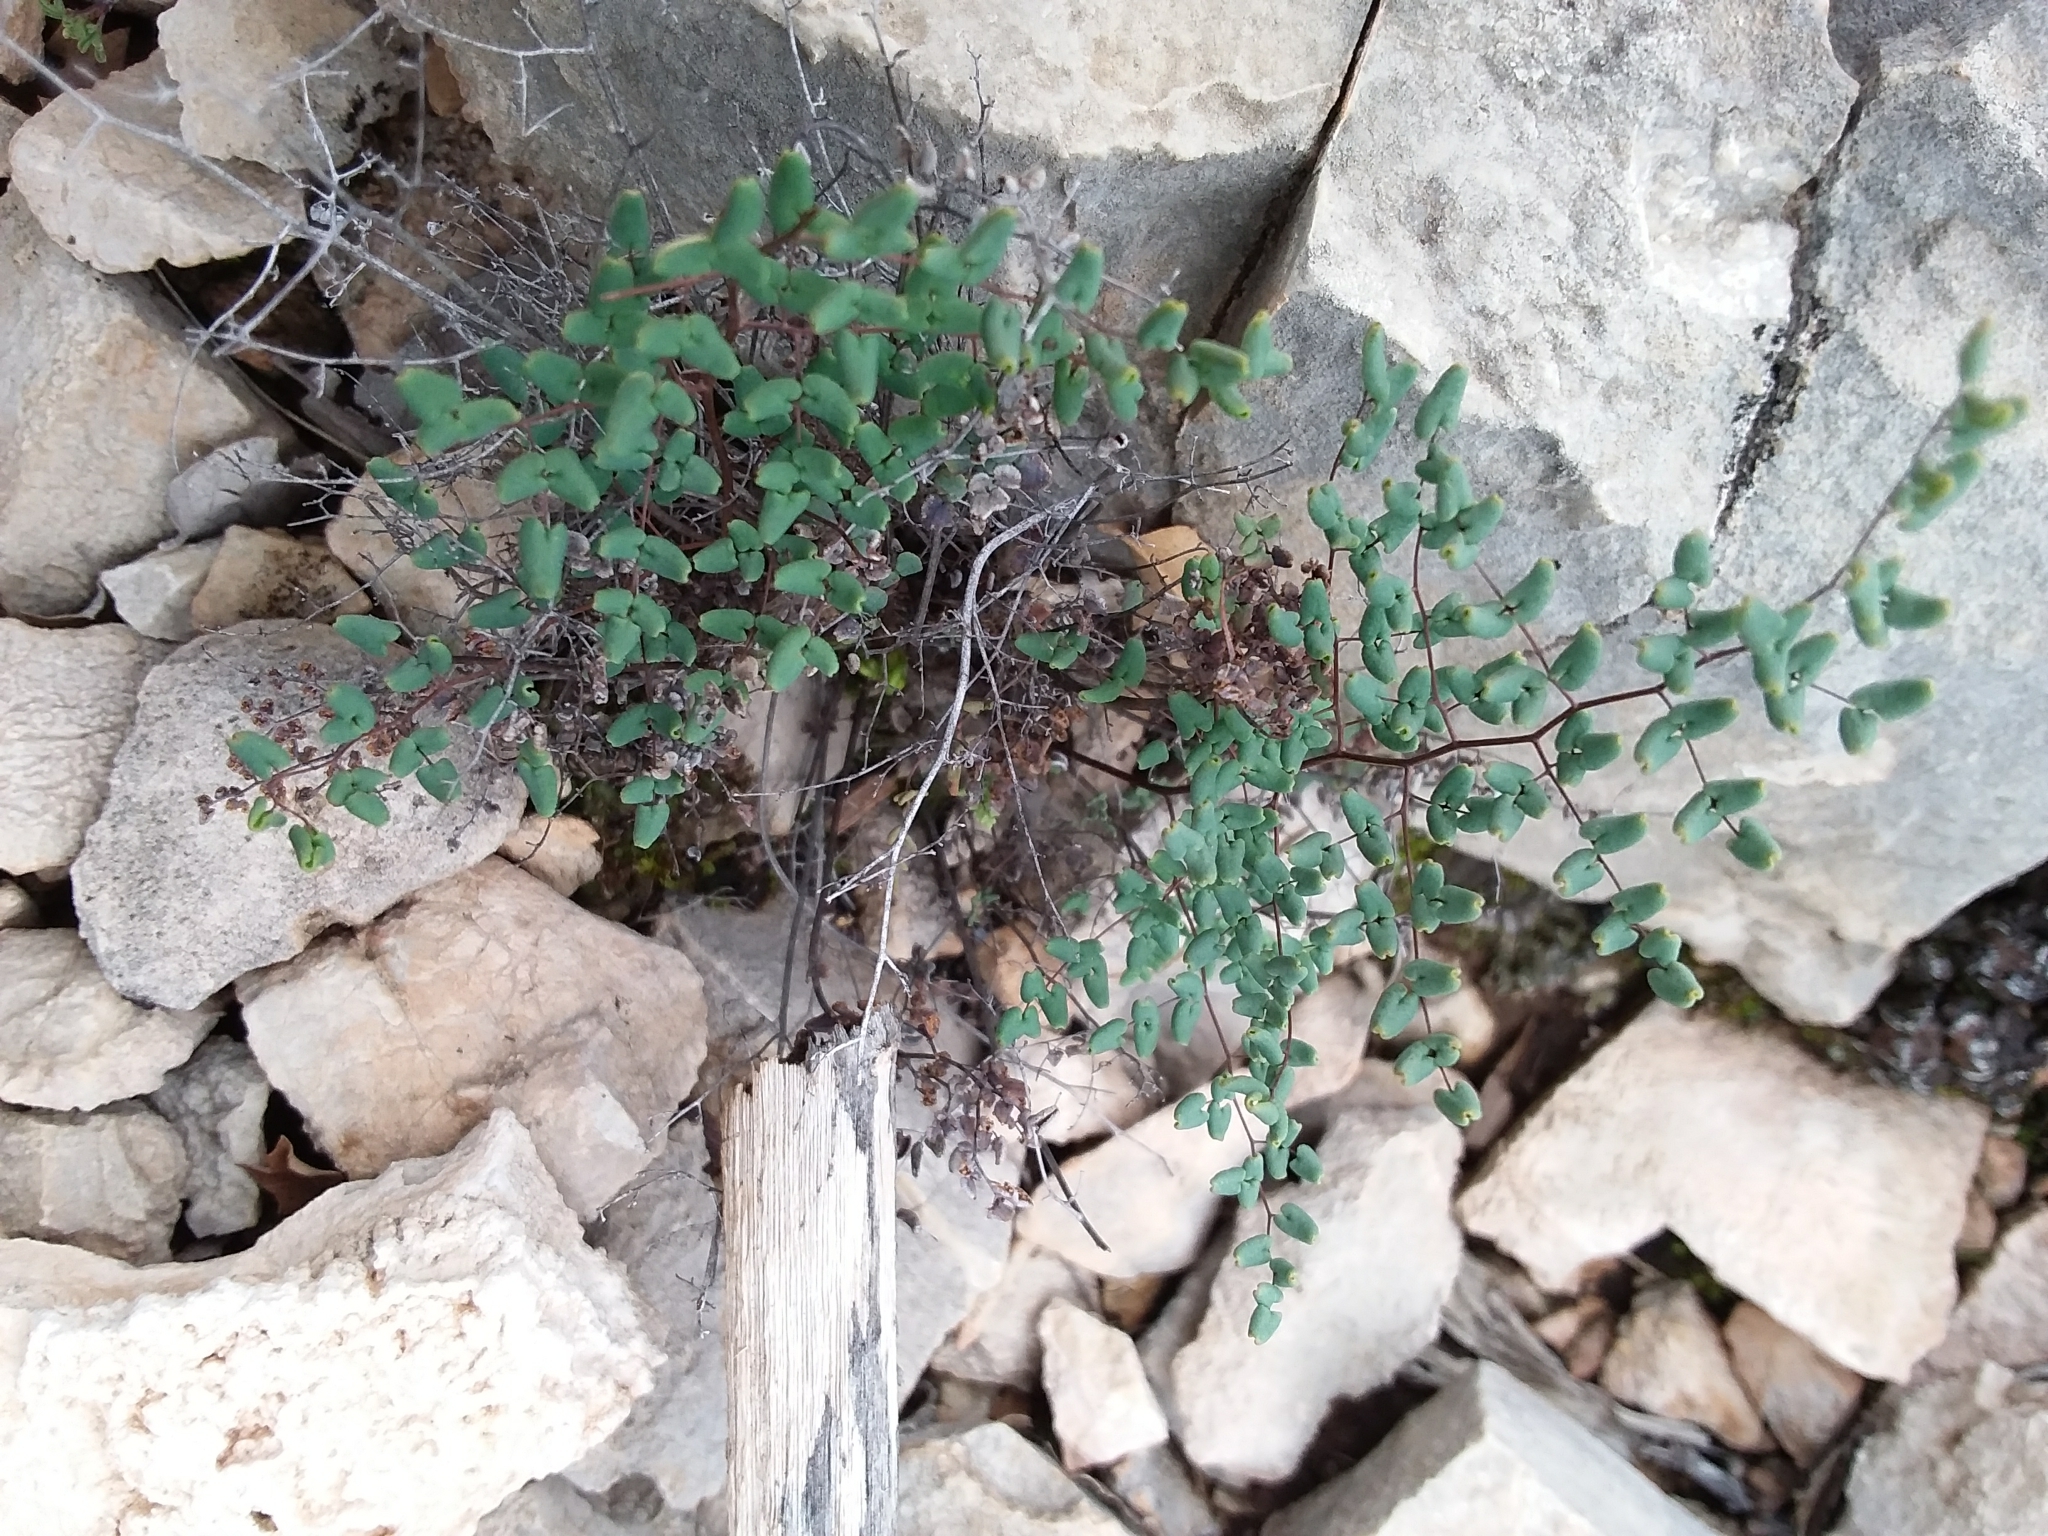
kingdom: Plantae
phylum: Tracheophyta
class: Polypodiopsida
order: Polypodiales
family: Pteridaceae
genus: Argyrochosma
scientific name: Argyrochosma microphylla
